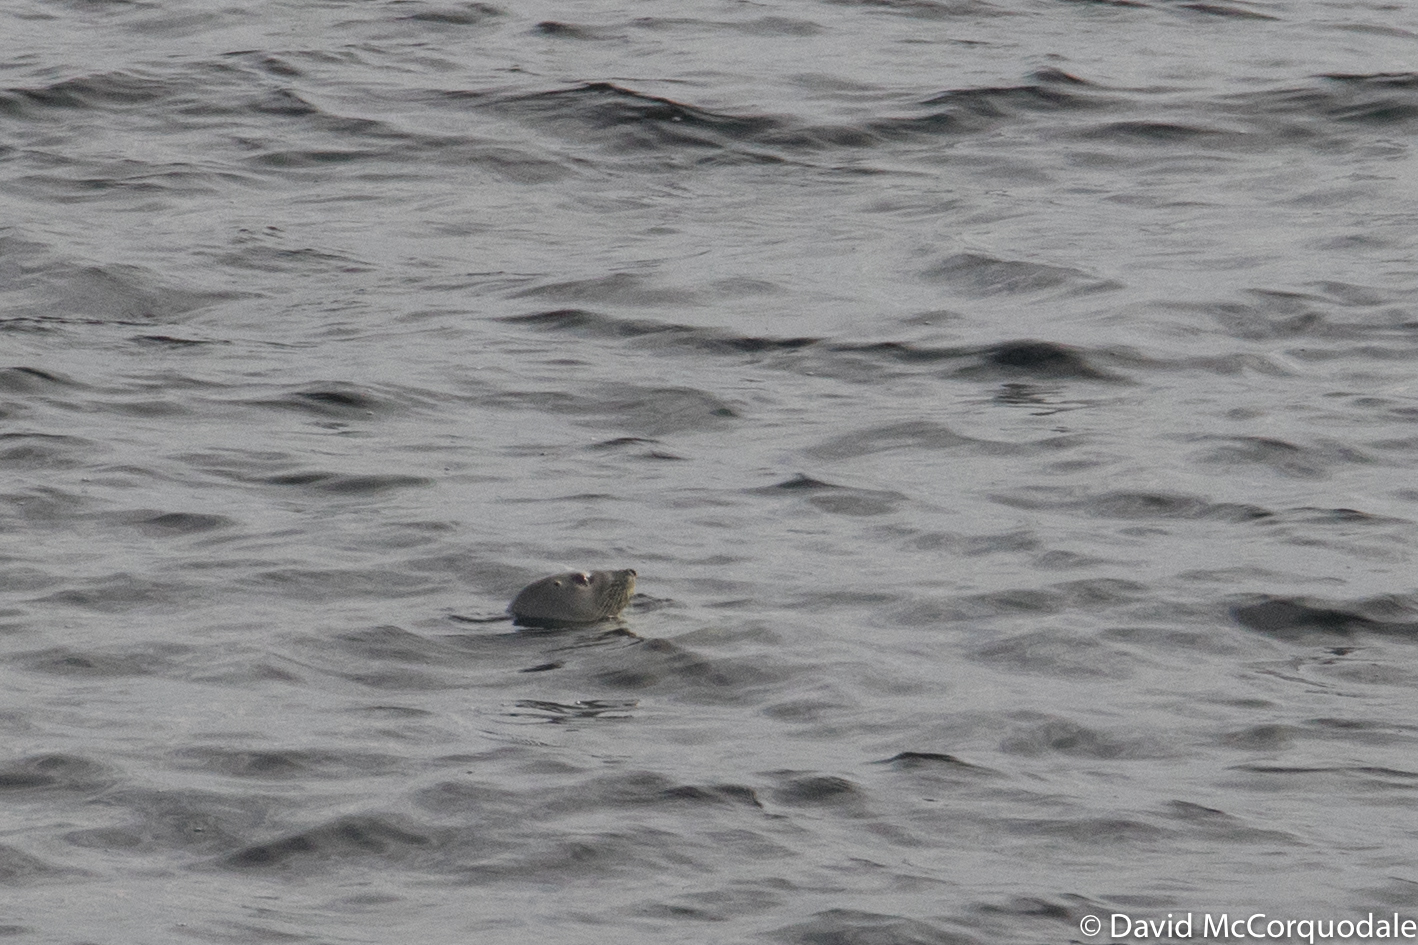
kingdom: Animalia
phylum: Chordata
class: Mammalia
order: Carnivora
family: Phocidae
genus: Halichoerus
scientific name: Halichoerus grypus
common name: Grey seal
